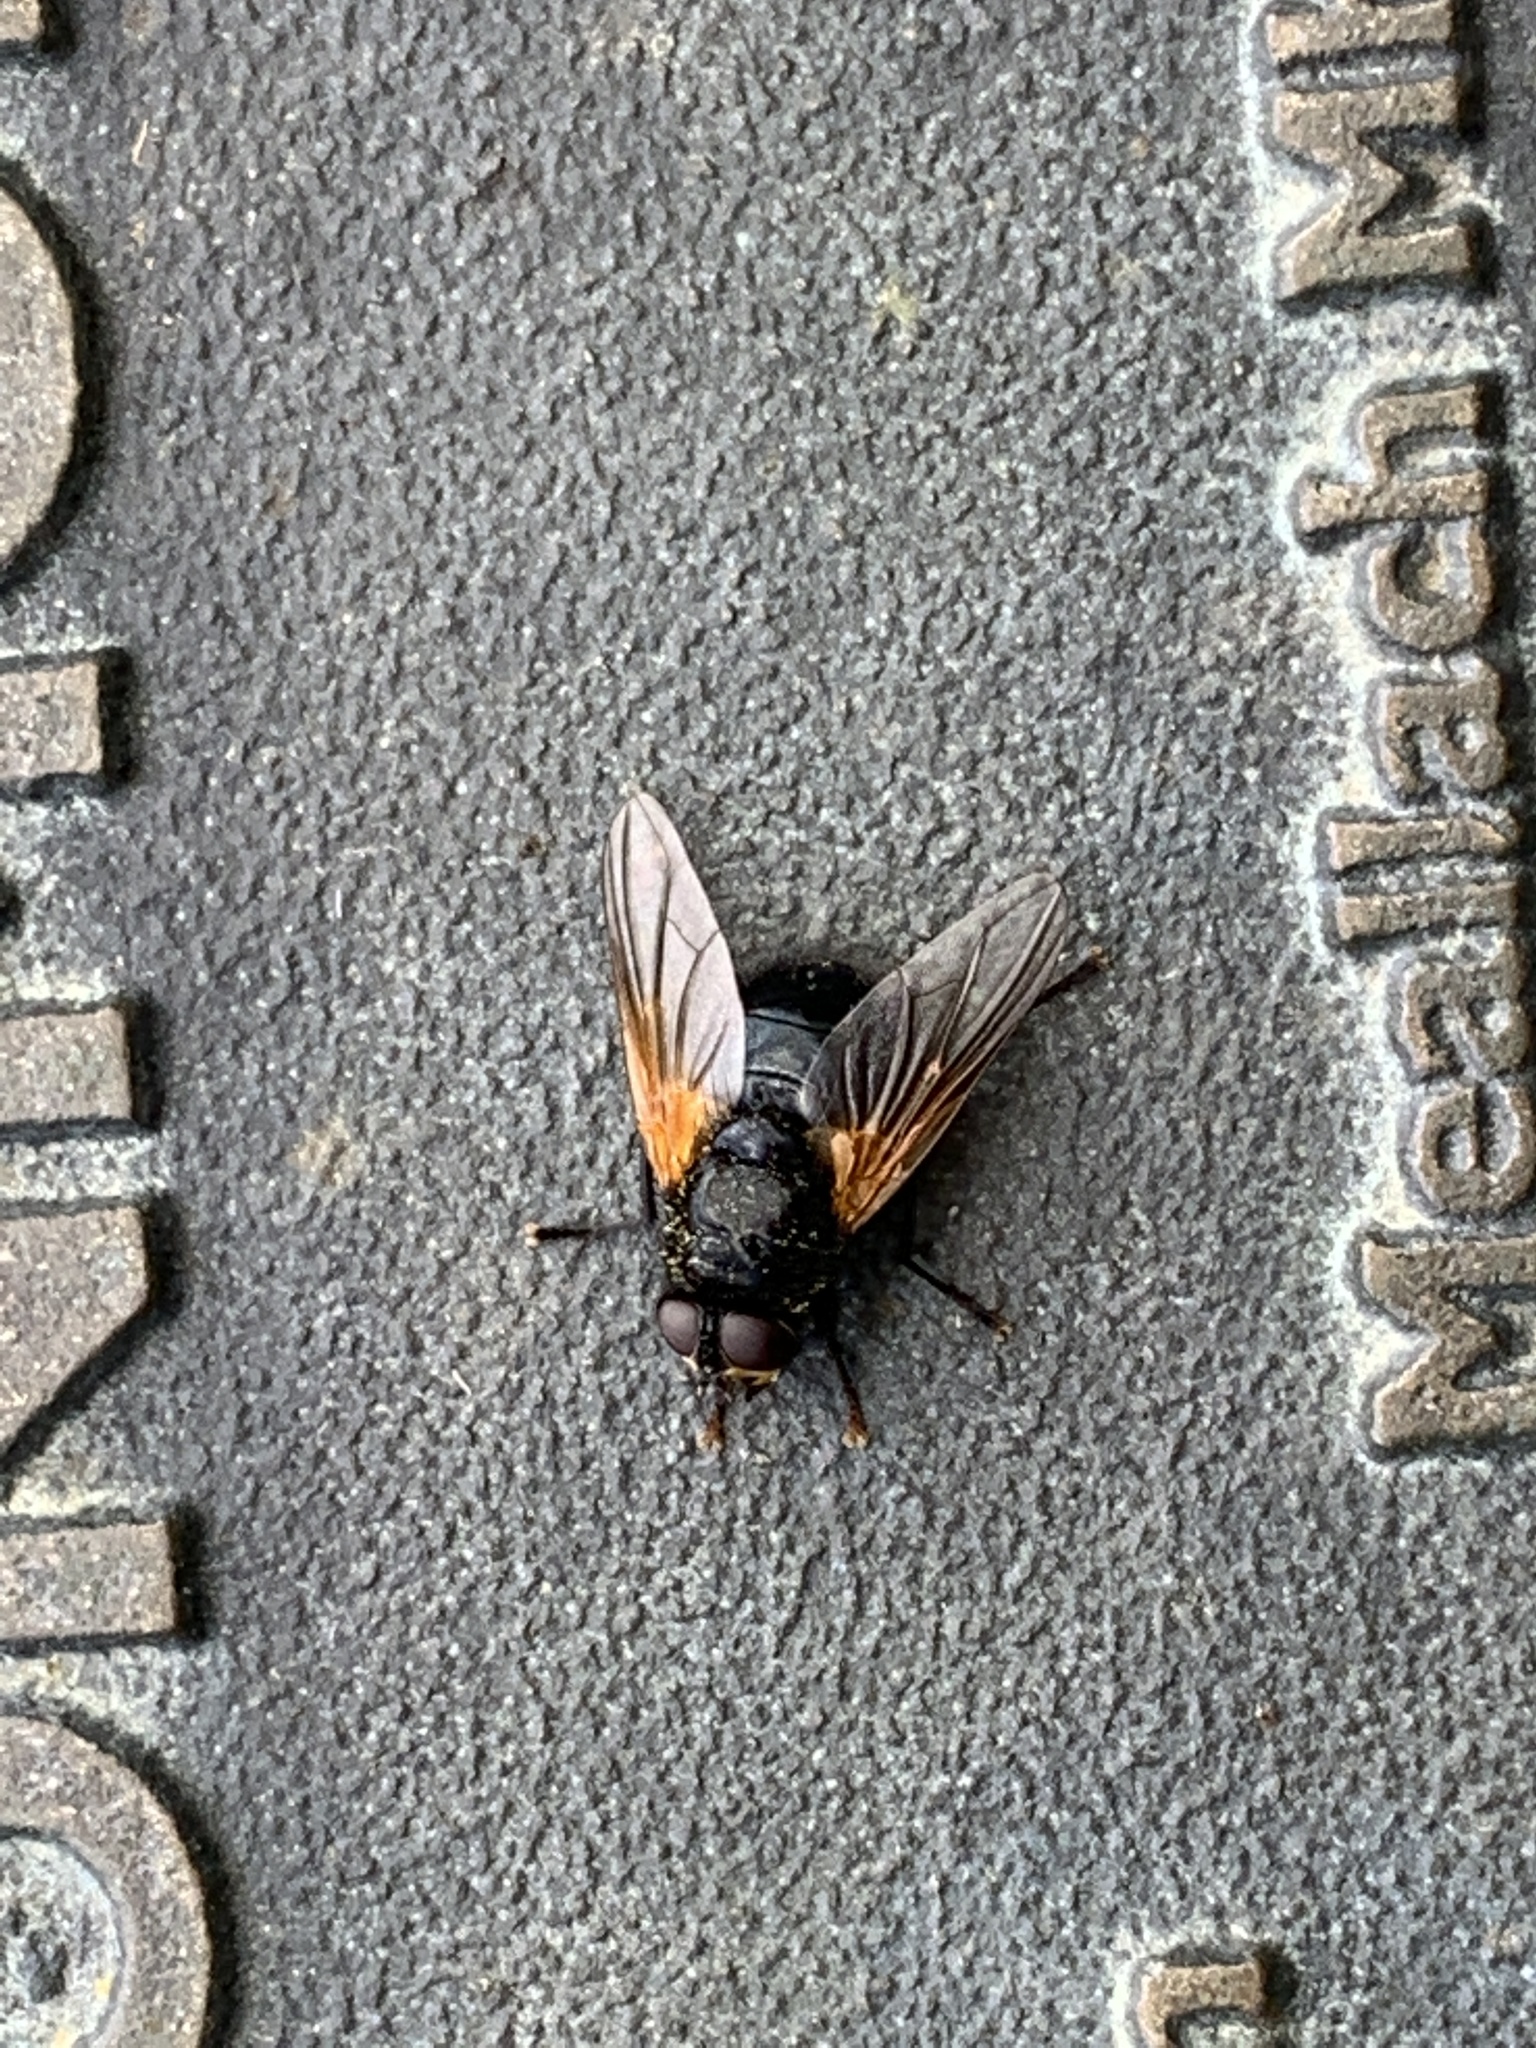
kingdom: Animalia
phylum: Arthropoda
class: Insecta
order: Diptera
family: Muscidae
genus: Mesembrina
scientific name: Mesembrina meridiana
